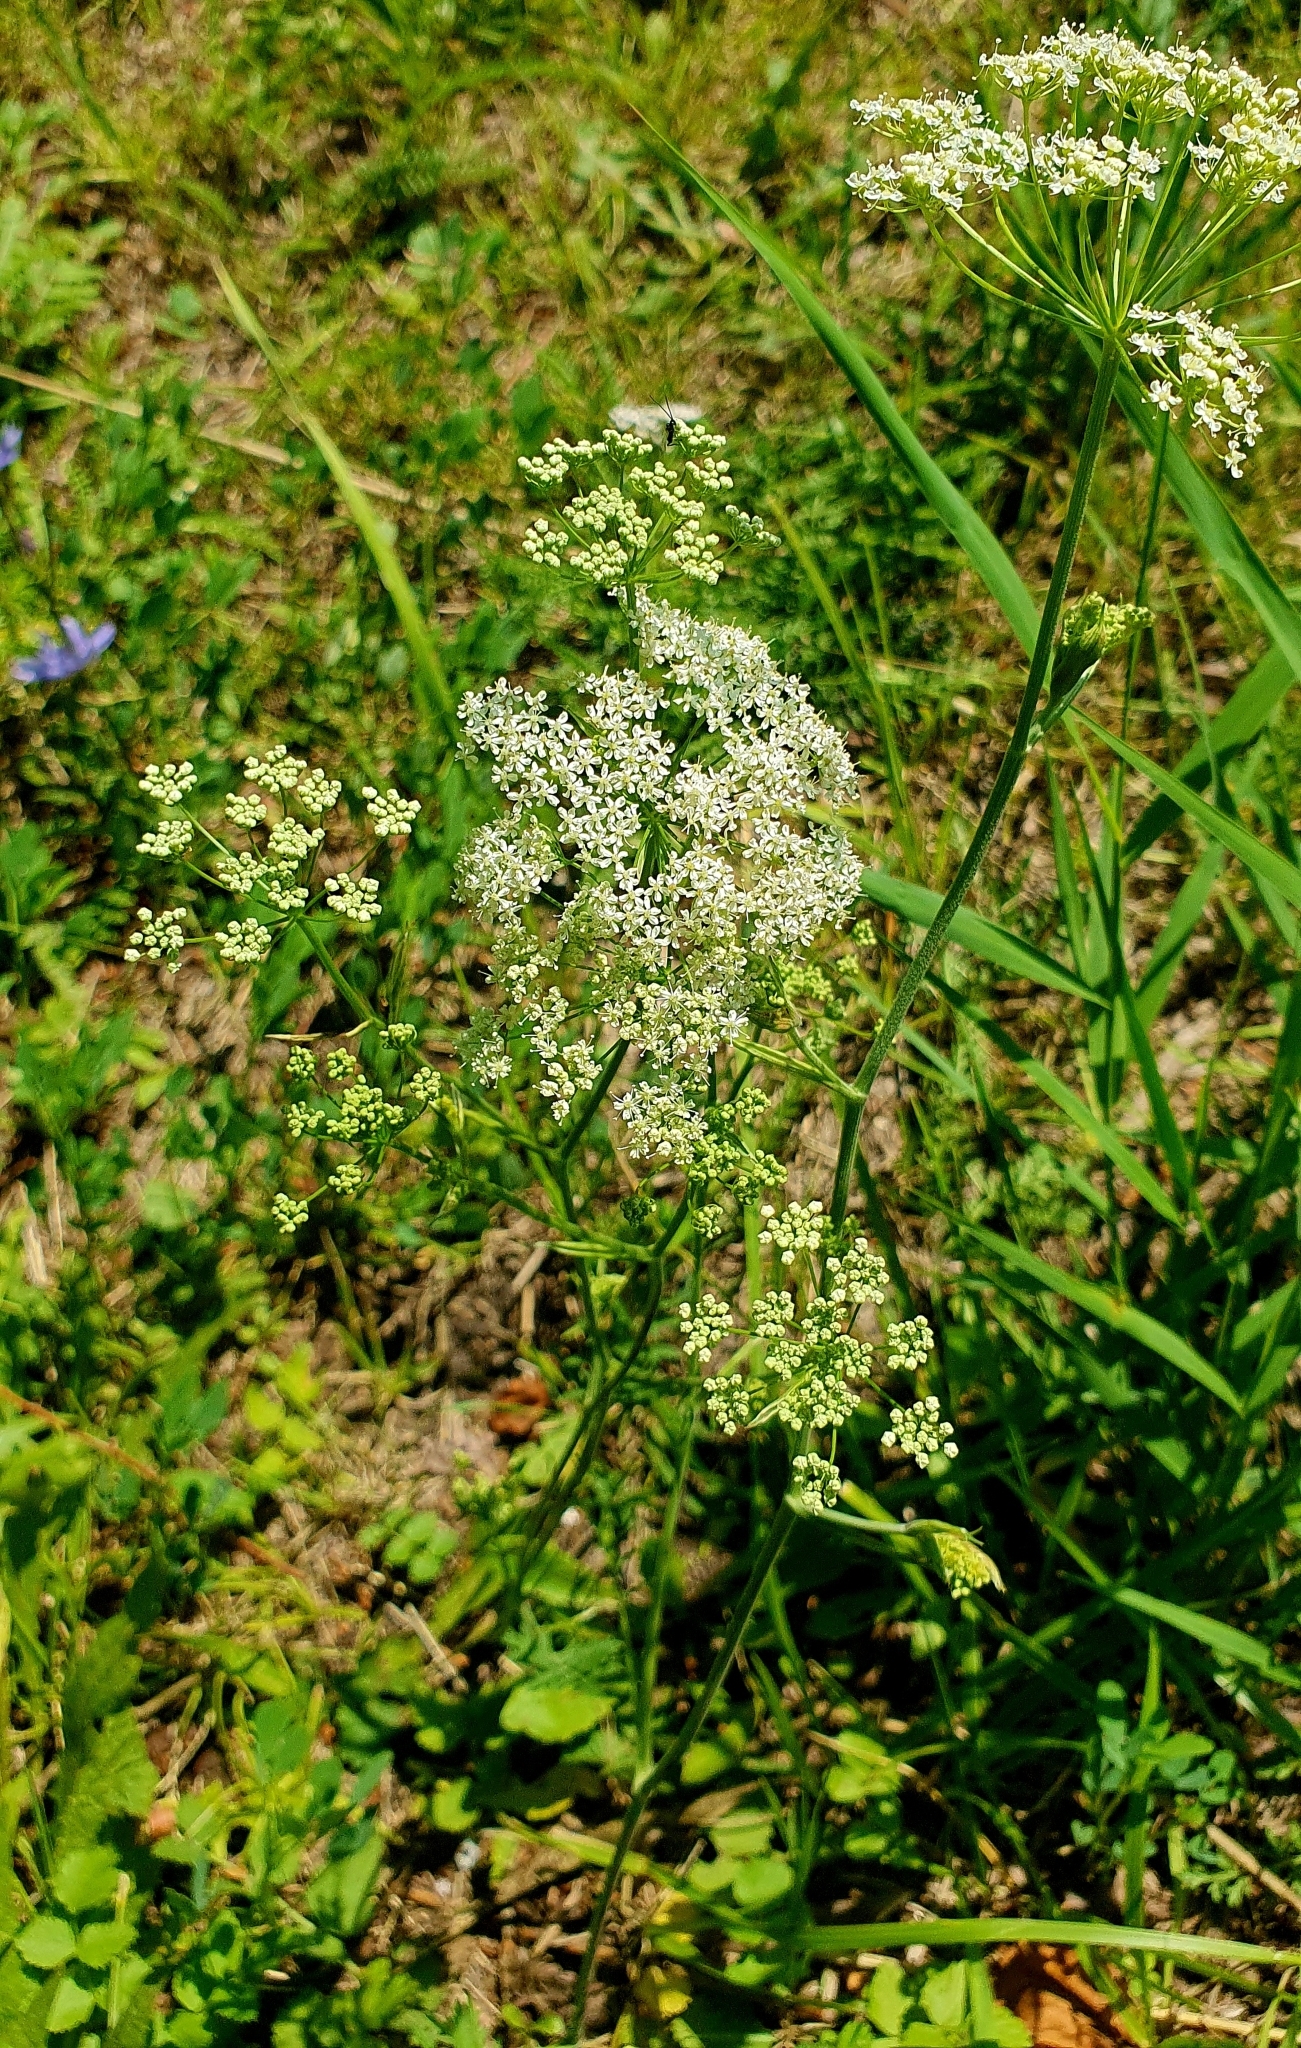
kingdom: Plantae
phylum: Tracheophyta
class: Magnoliopsida
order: Apiales
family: Apiaceae
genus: Pimpinella
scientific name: Pimpinella saxifraga
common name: Burnet-saxifrage
